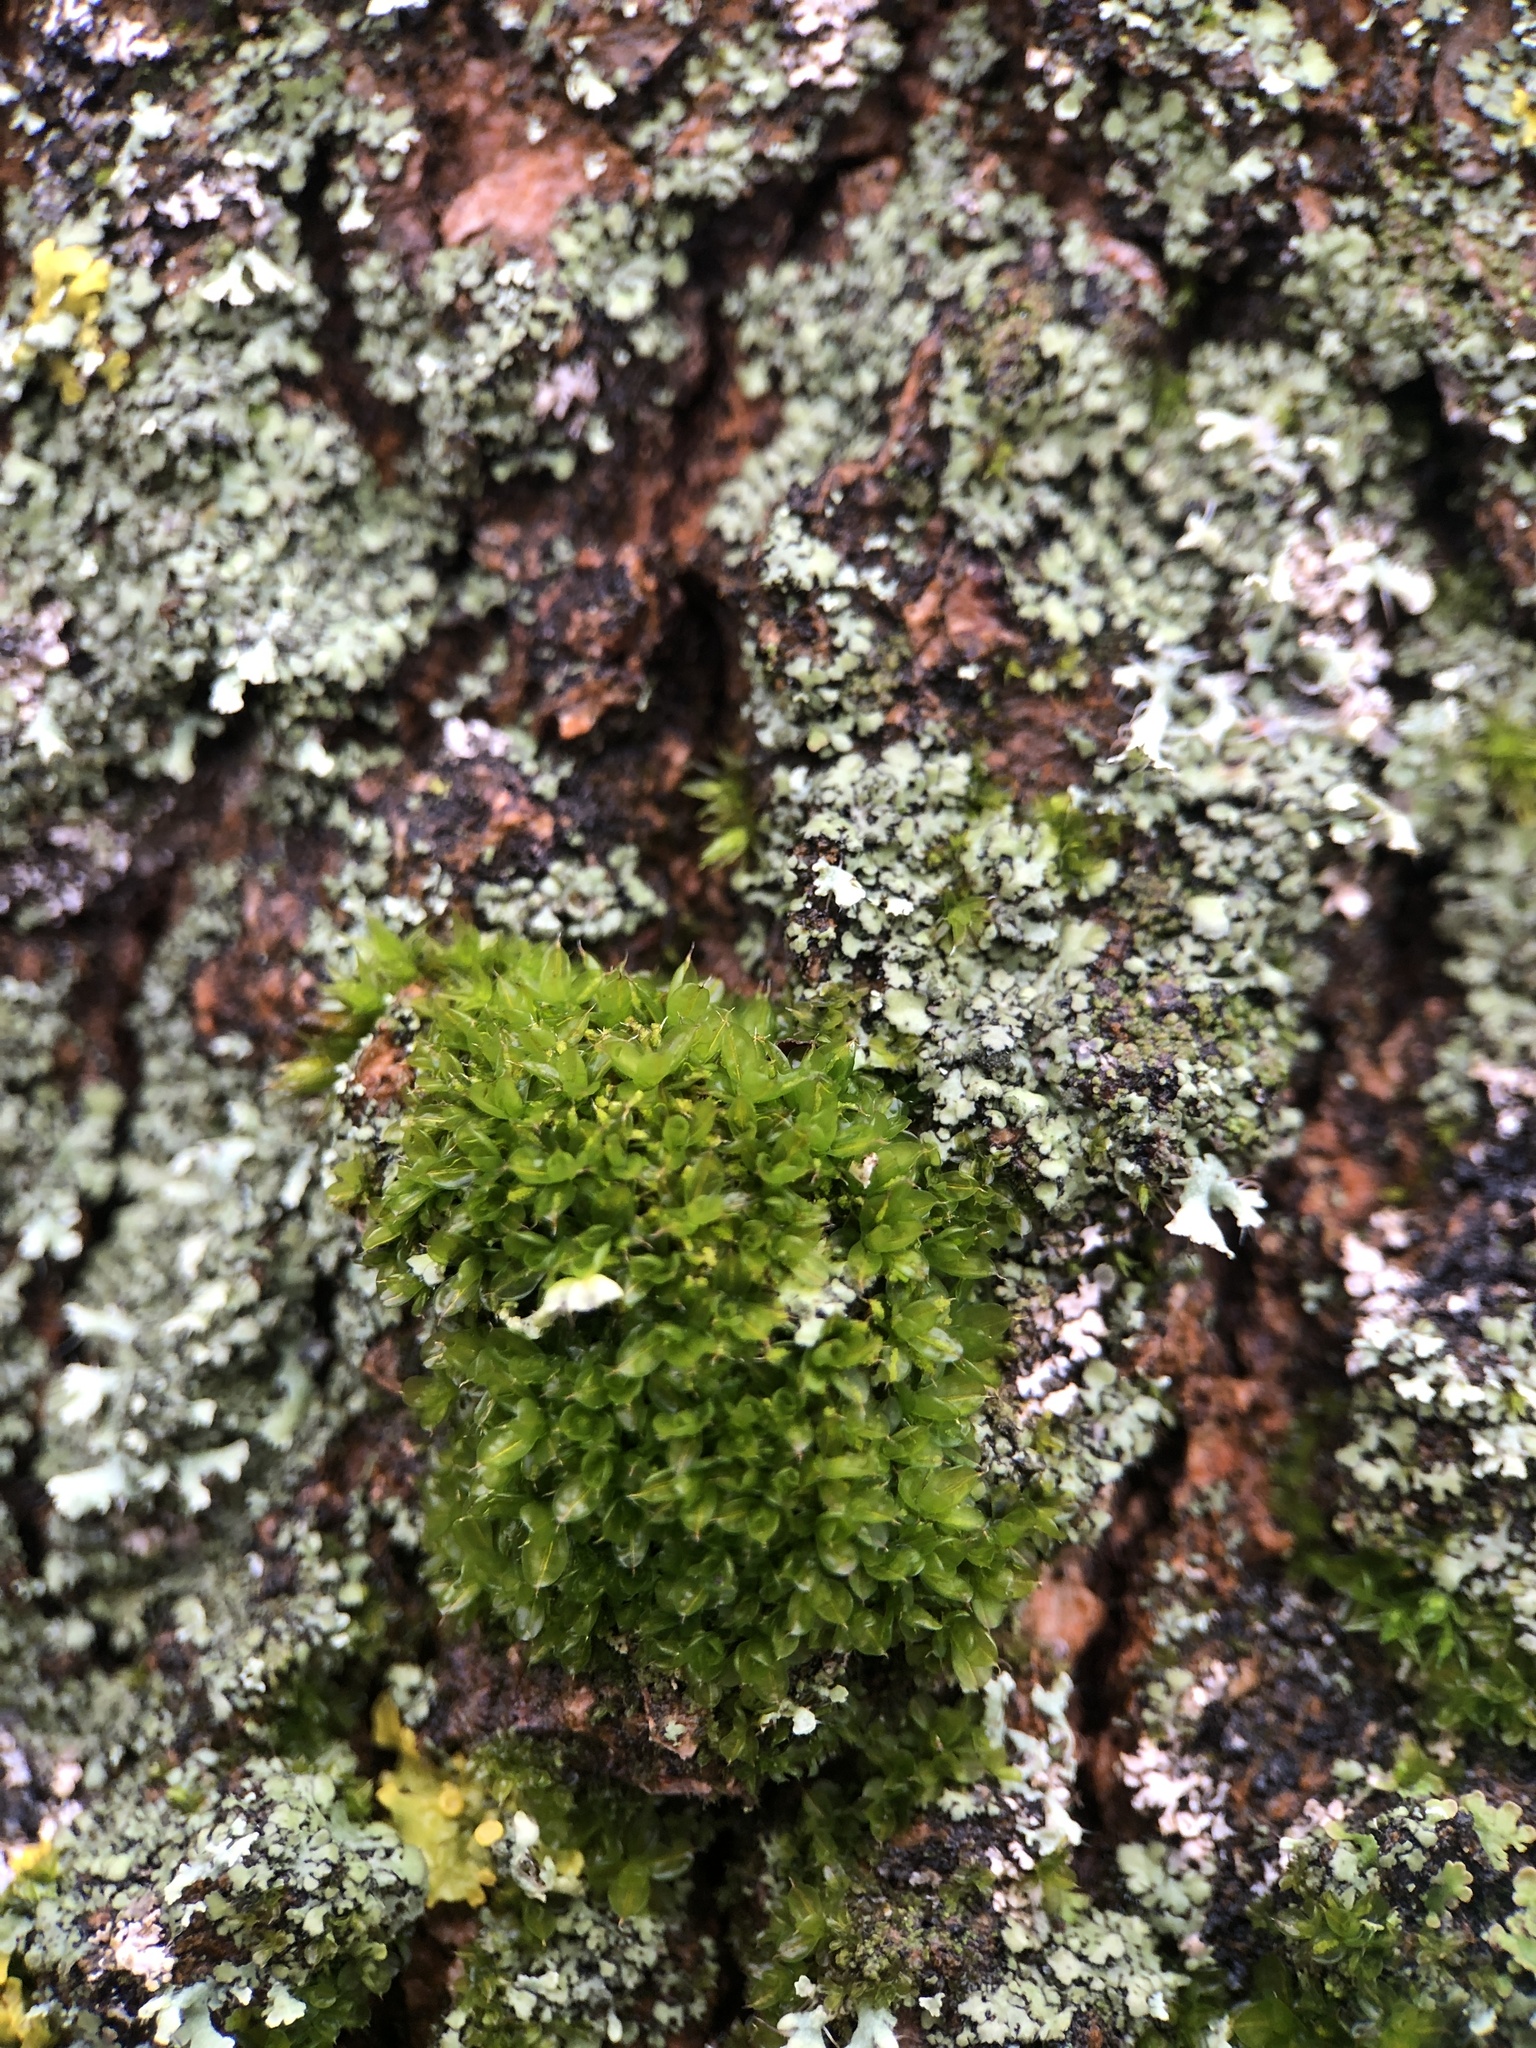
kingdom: Plantae
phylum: Bryophyta
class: Bryopsida
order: Pottiales
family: Pottiaceae
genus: Syntrichia
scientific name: Syntrichia papillosa
